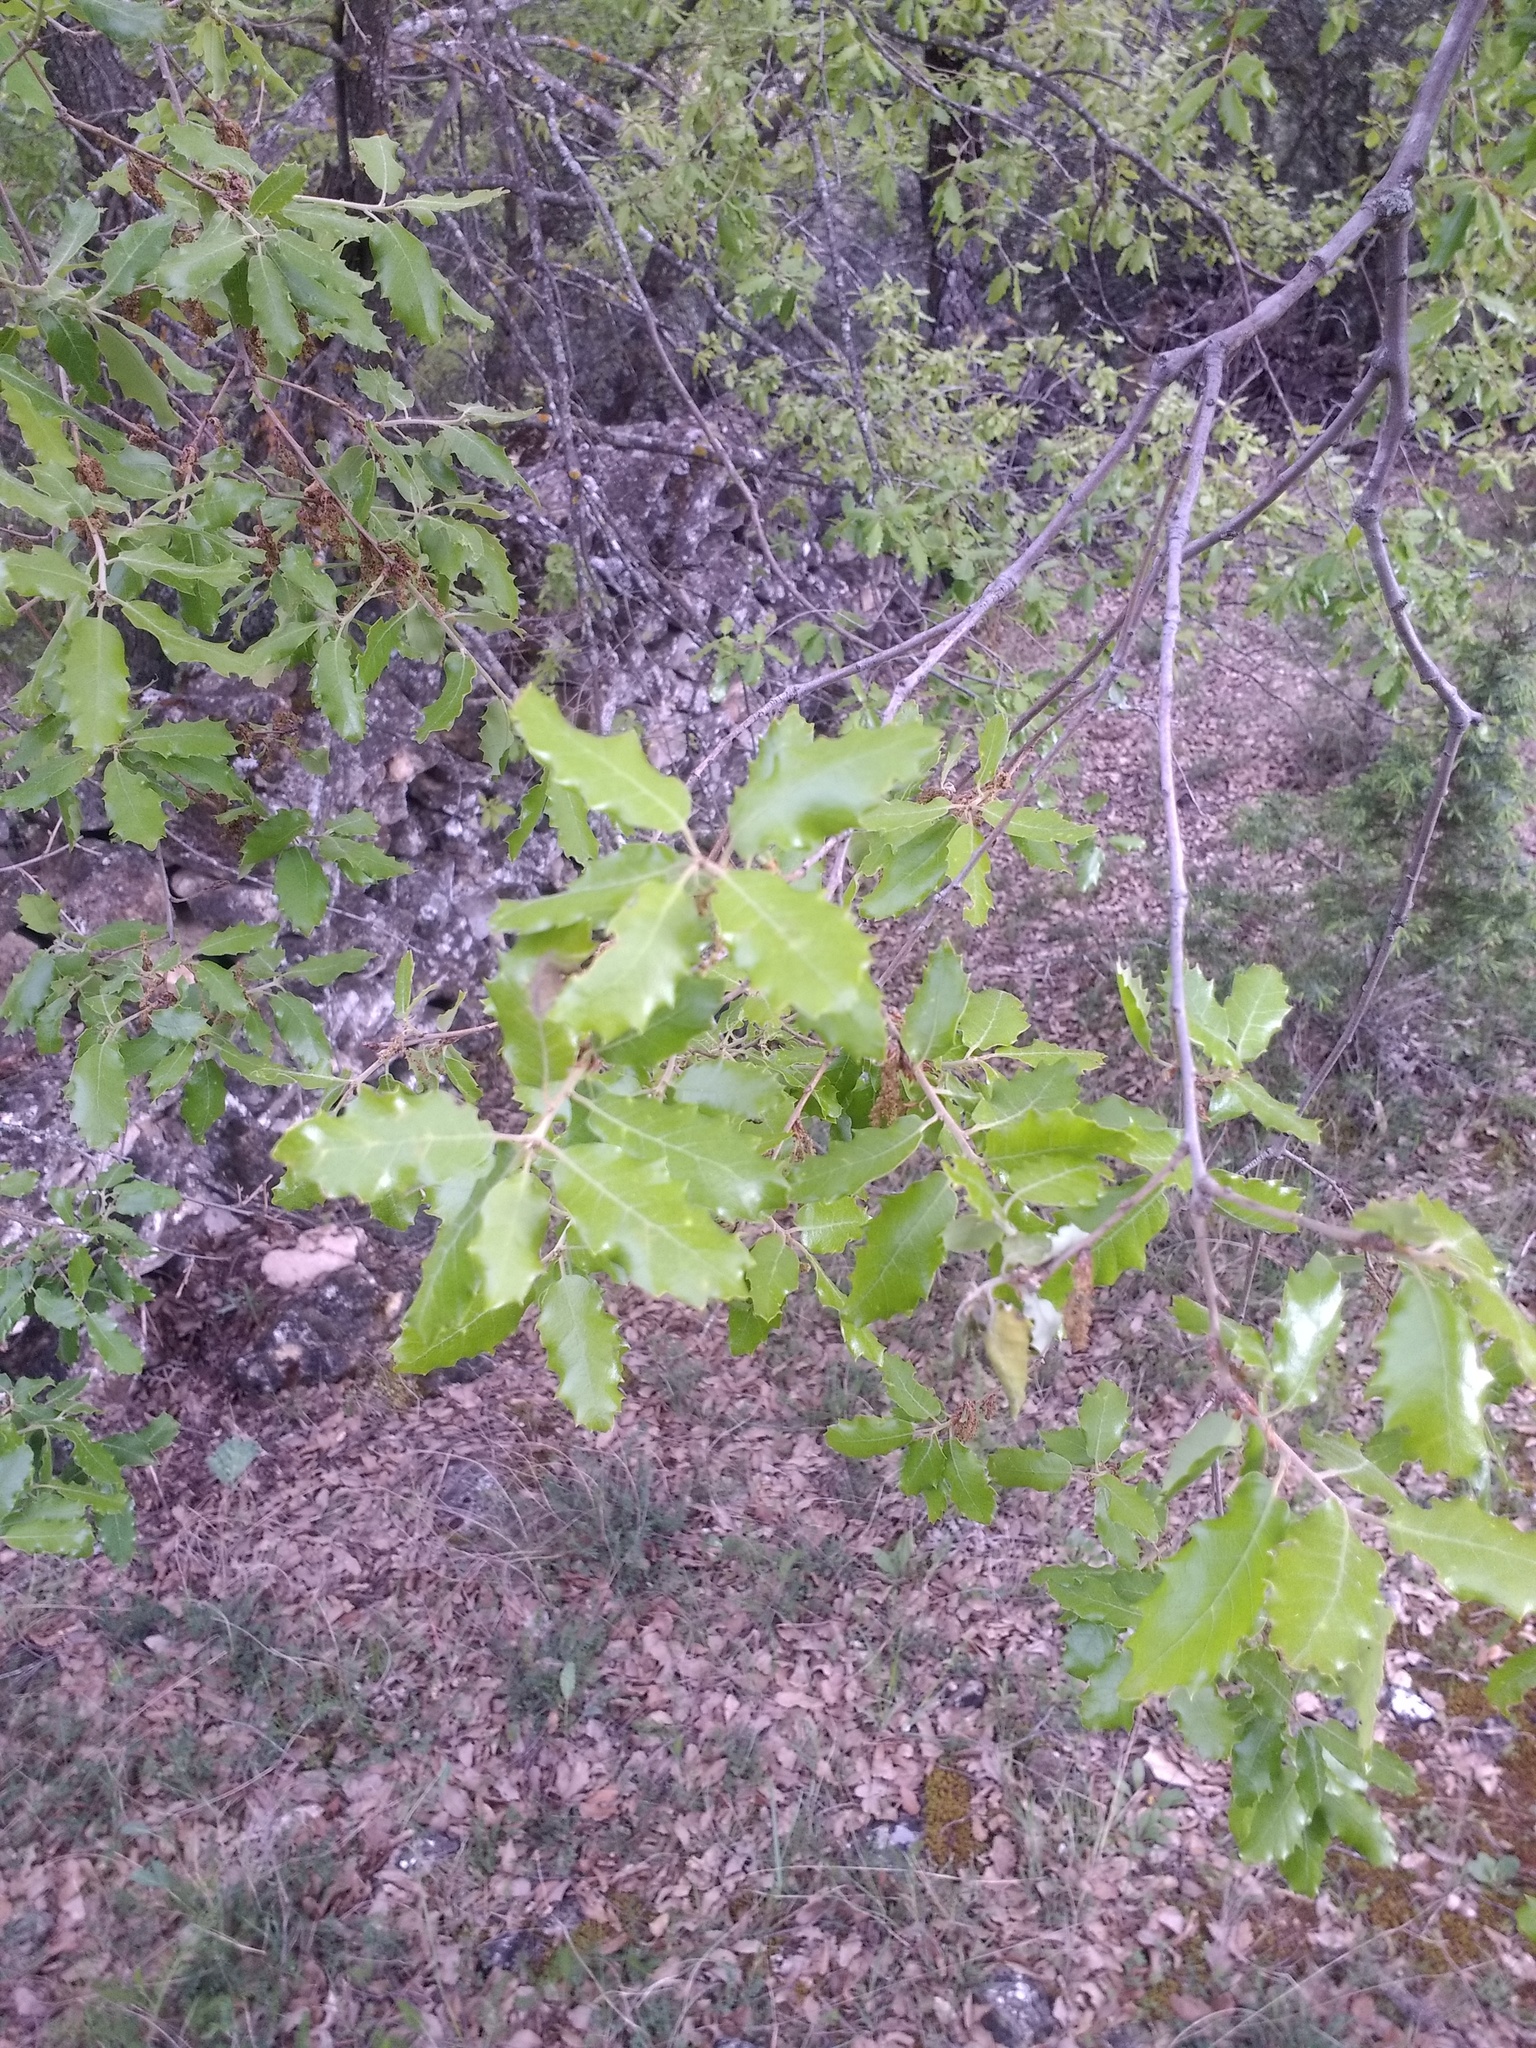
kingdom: Plantae
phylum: Tracheophyta
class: Magnoliopsida
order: Fagales
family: Fagaceae
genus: Quercus
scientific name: Quercus faginea
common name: Gall oak tree
